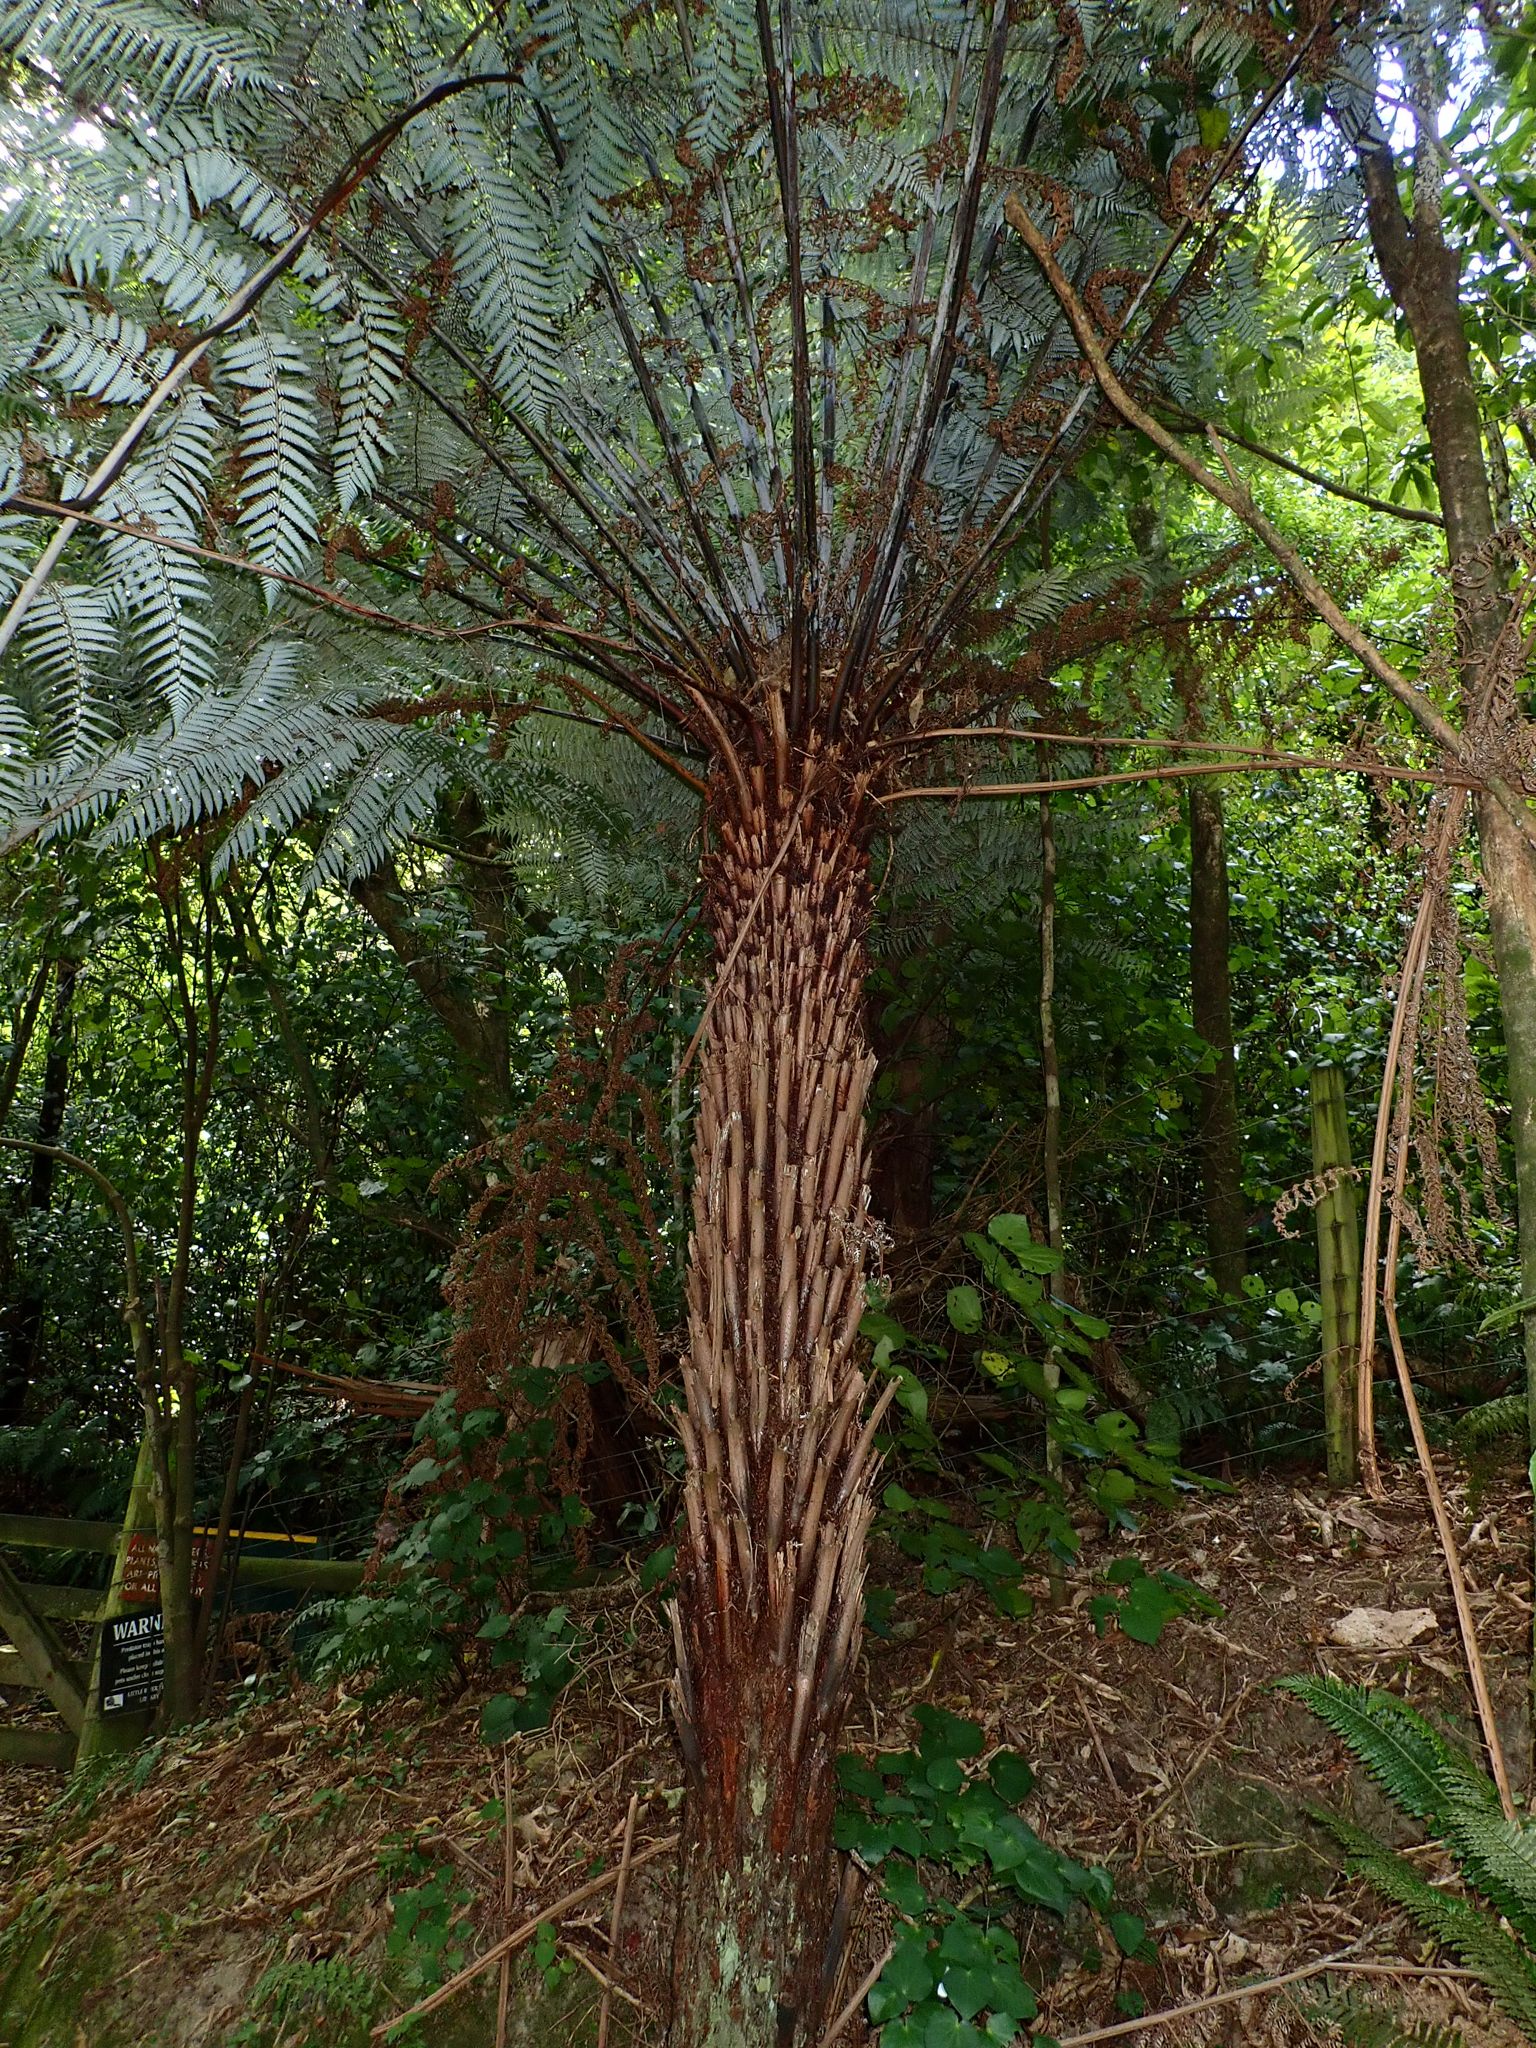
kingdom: Plantae
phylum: Tracheophyta
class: Polypodiopsida
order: Cyatheales
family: Cyatheaceae
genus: Alsophila
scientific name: Alsophila dealbata
